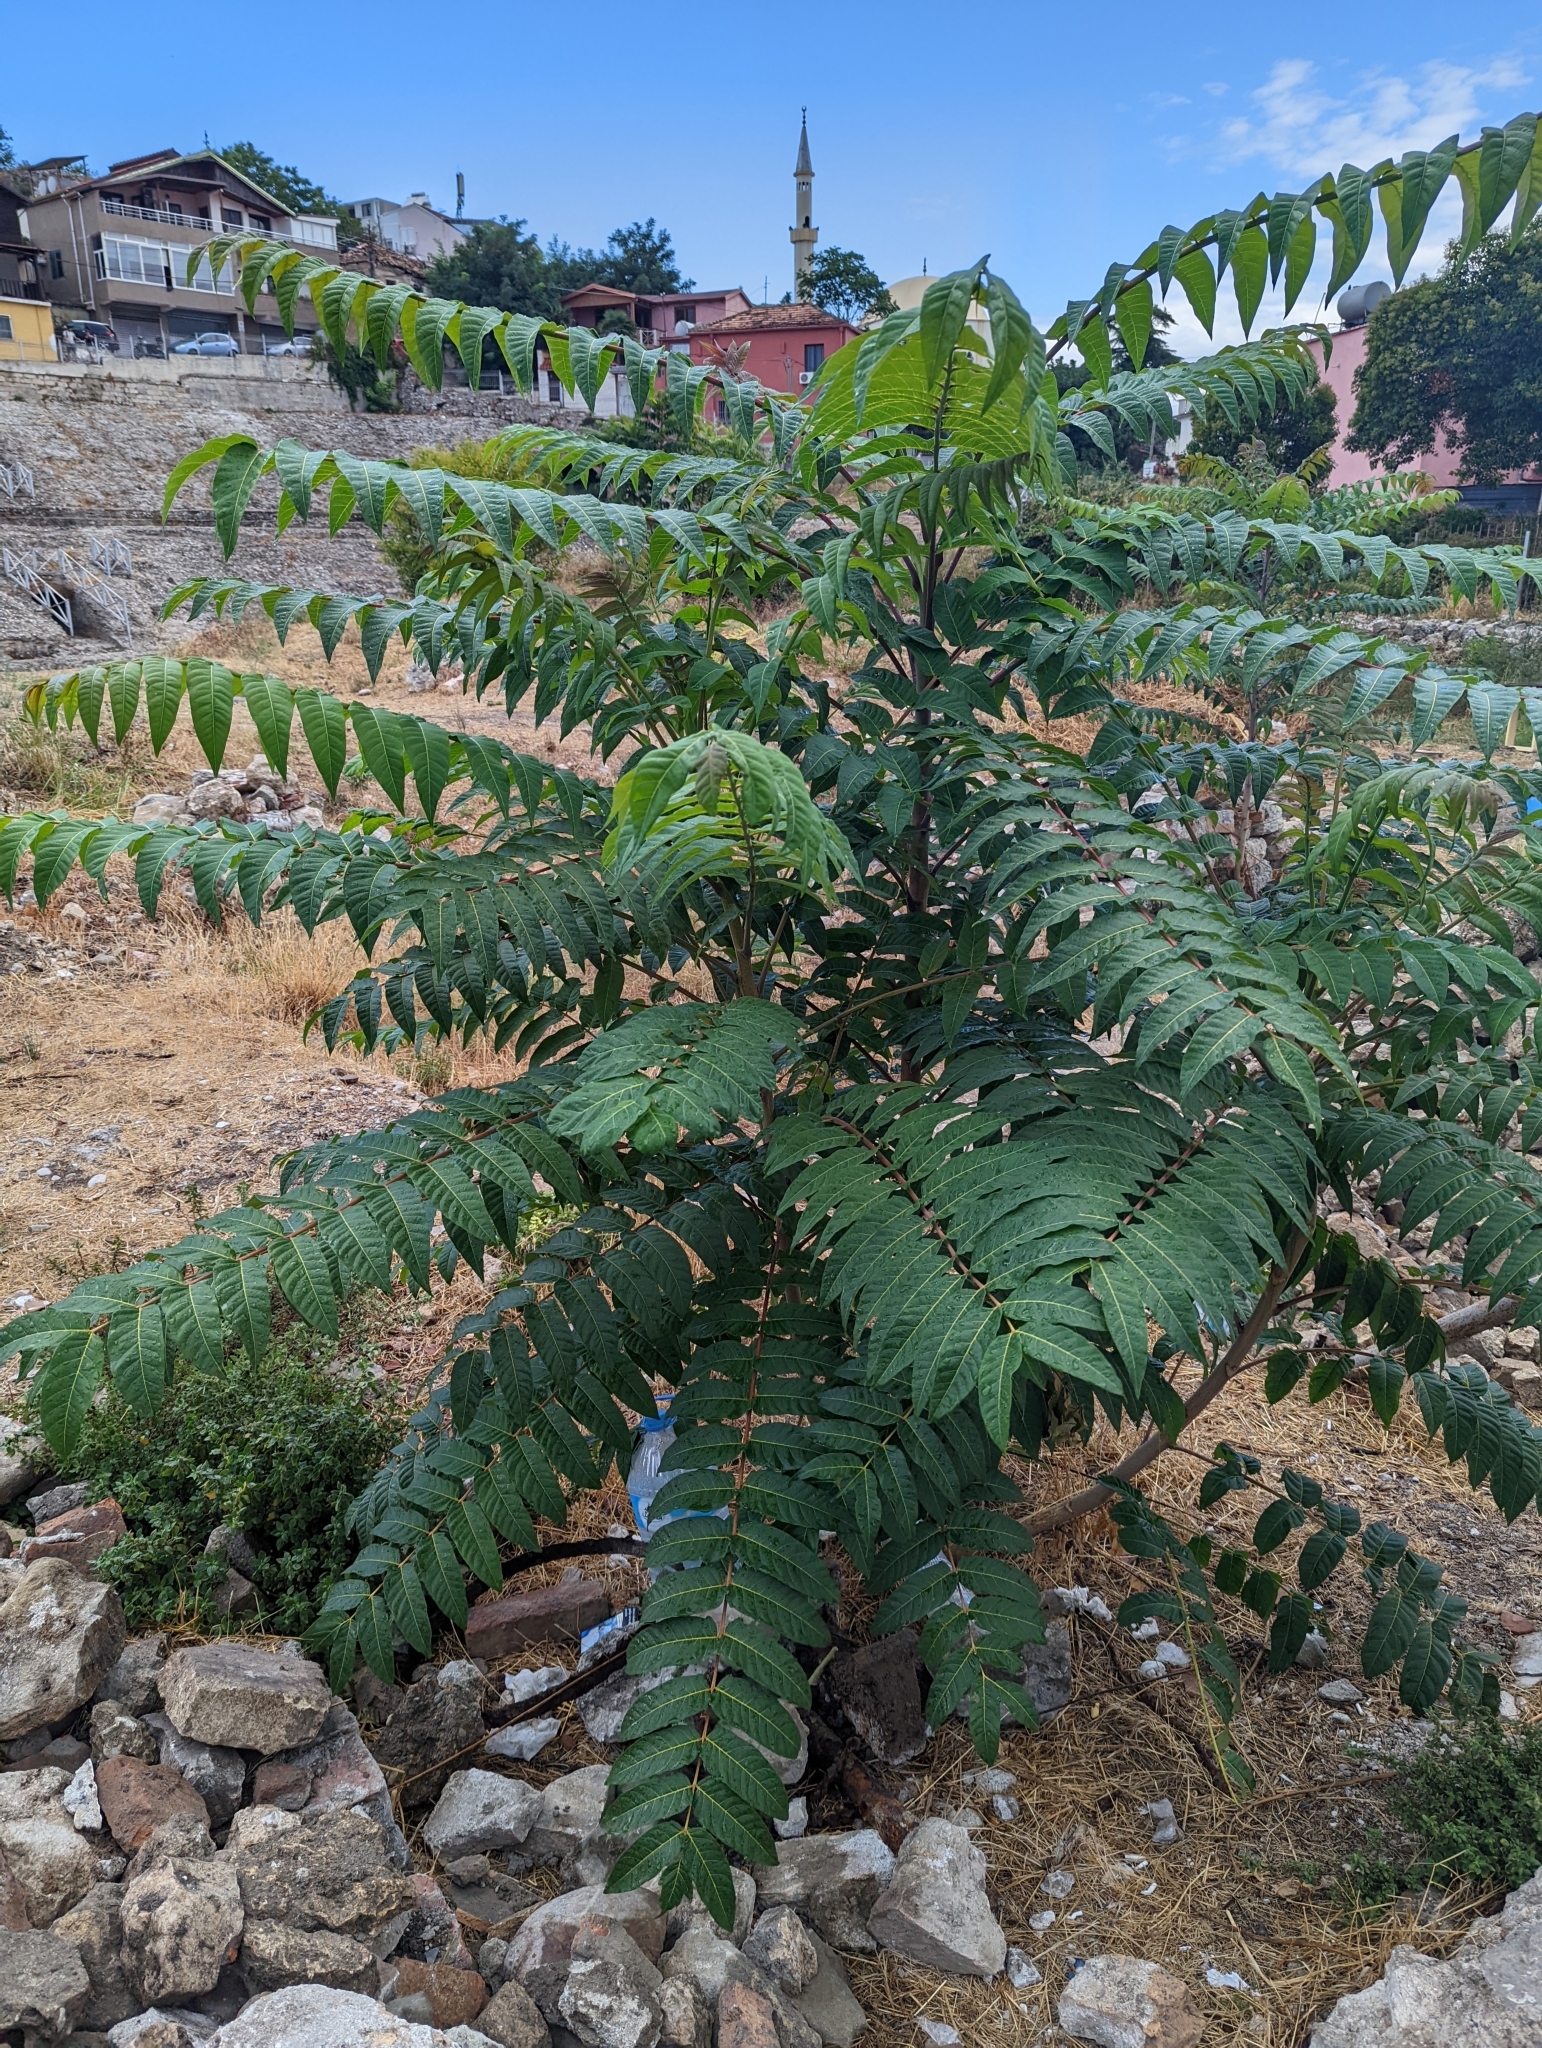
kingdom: Plantae
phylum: Tracheophyta
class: Magnoliopsida
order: Sapindales
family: Simaroubaceae
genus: Ailanthus
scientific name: Ailanthus altissima
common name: Tree-of-heaven
